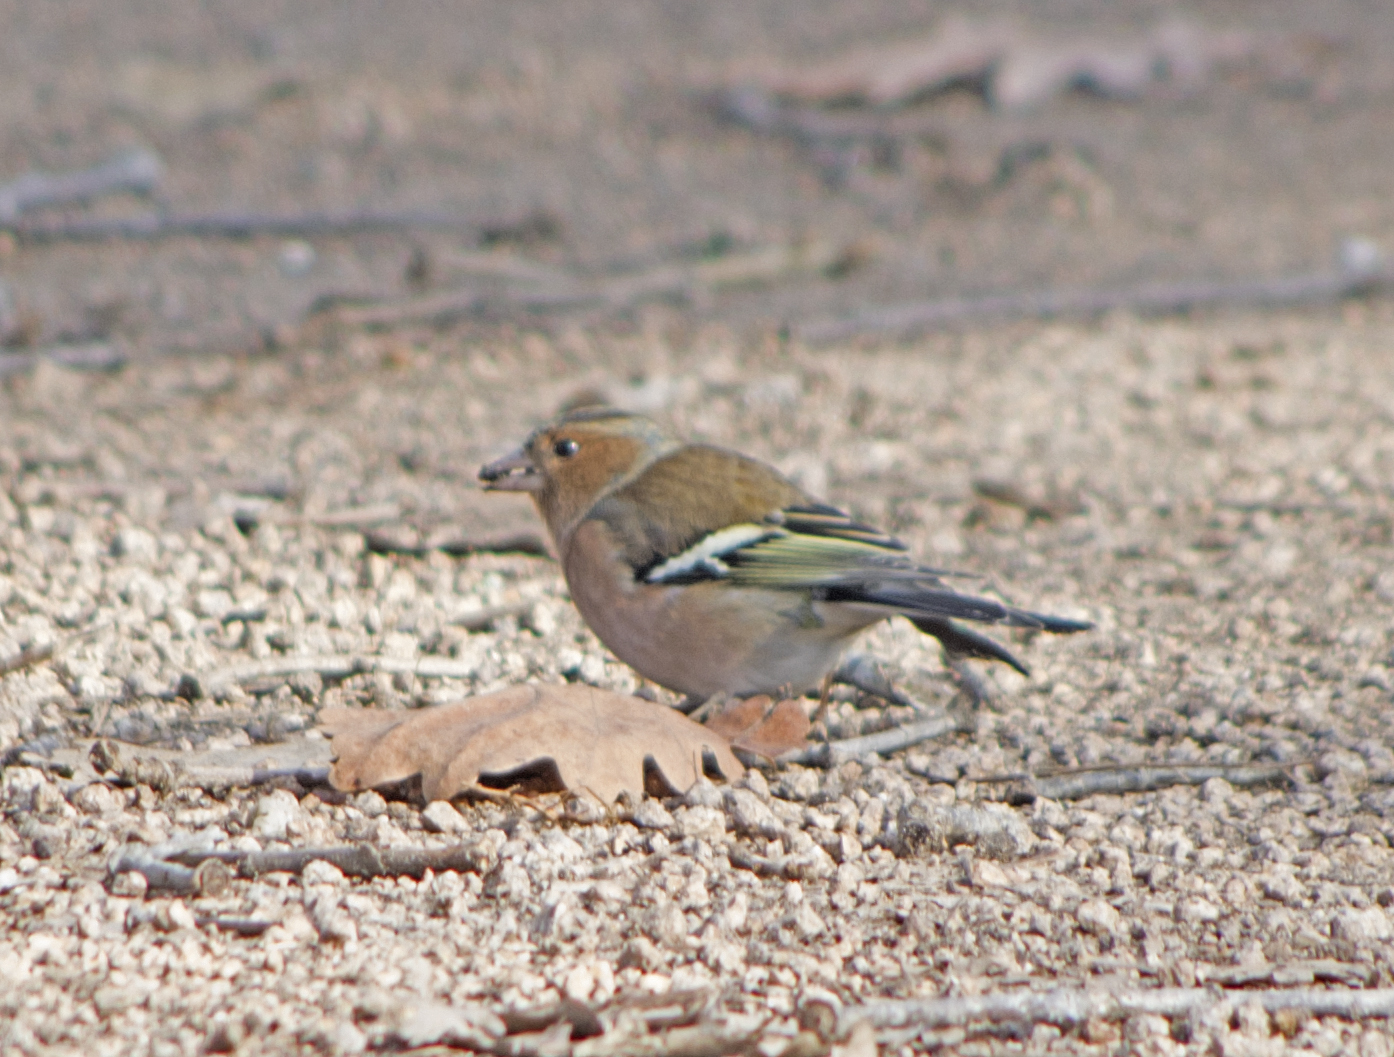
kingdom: Animalia
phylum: Chordata
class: Aves
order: Passeriformes
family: Fringillidae
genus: Fringilla
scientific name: Fringilla coelebs
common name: Common chaffinch
